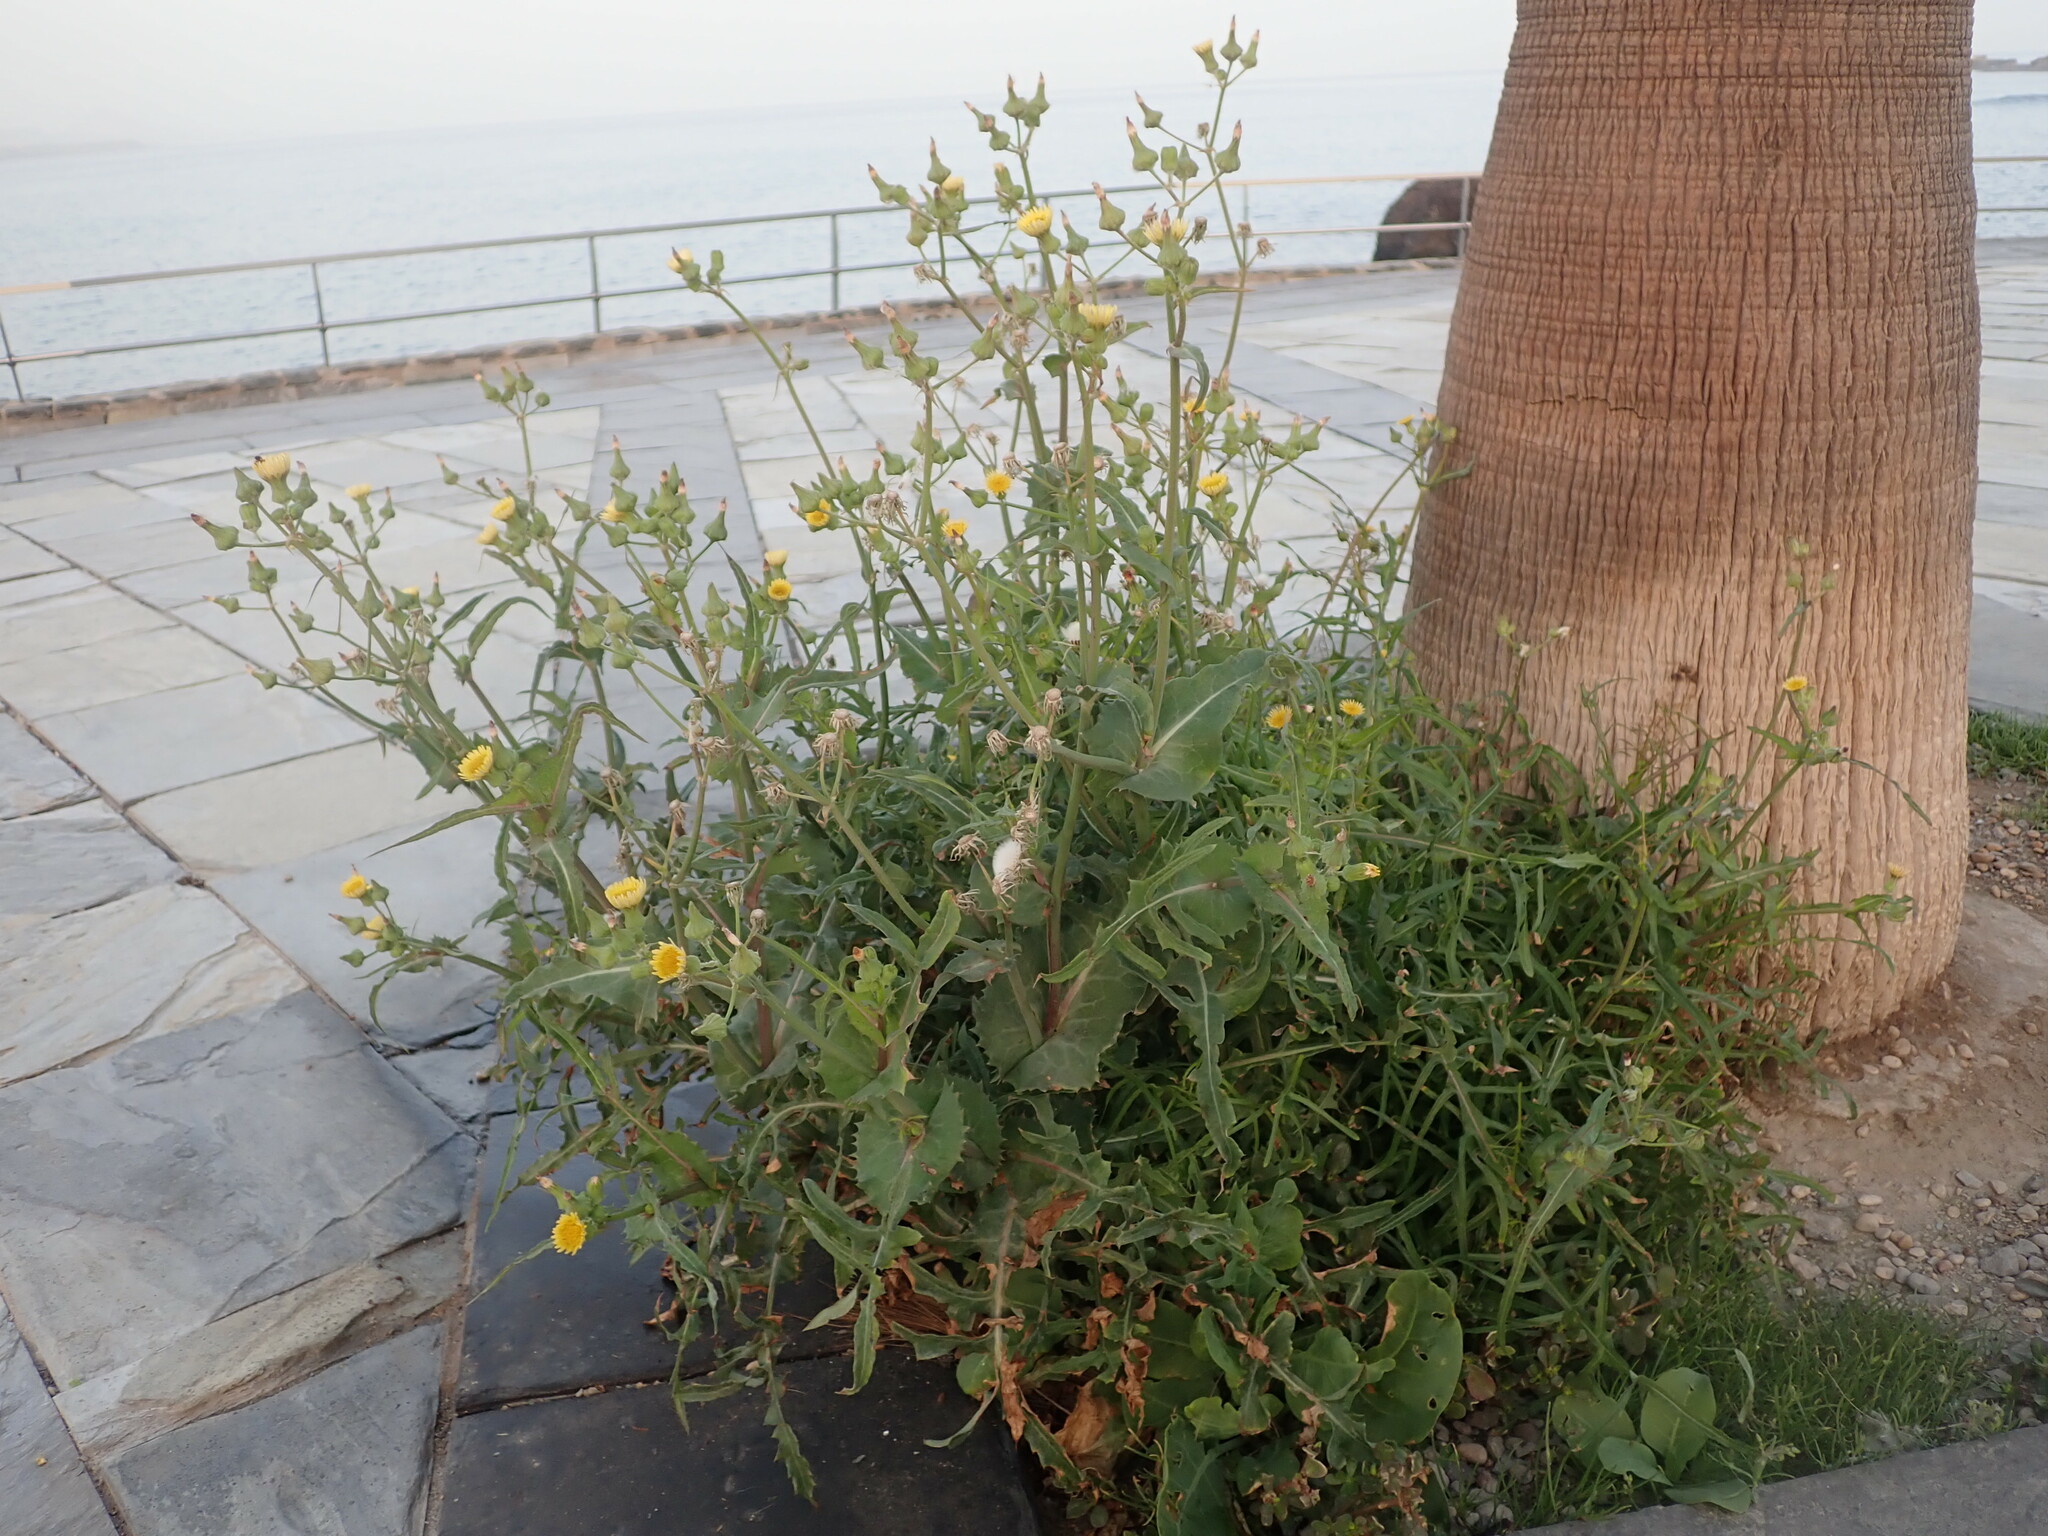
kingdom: Plantae
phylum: Tracheophyta
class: Magnoliopsida
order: Asterales
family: Asteraceae
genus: Sonchus
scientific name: Sonchus oleraceus
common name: Common sowthistle
